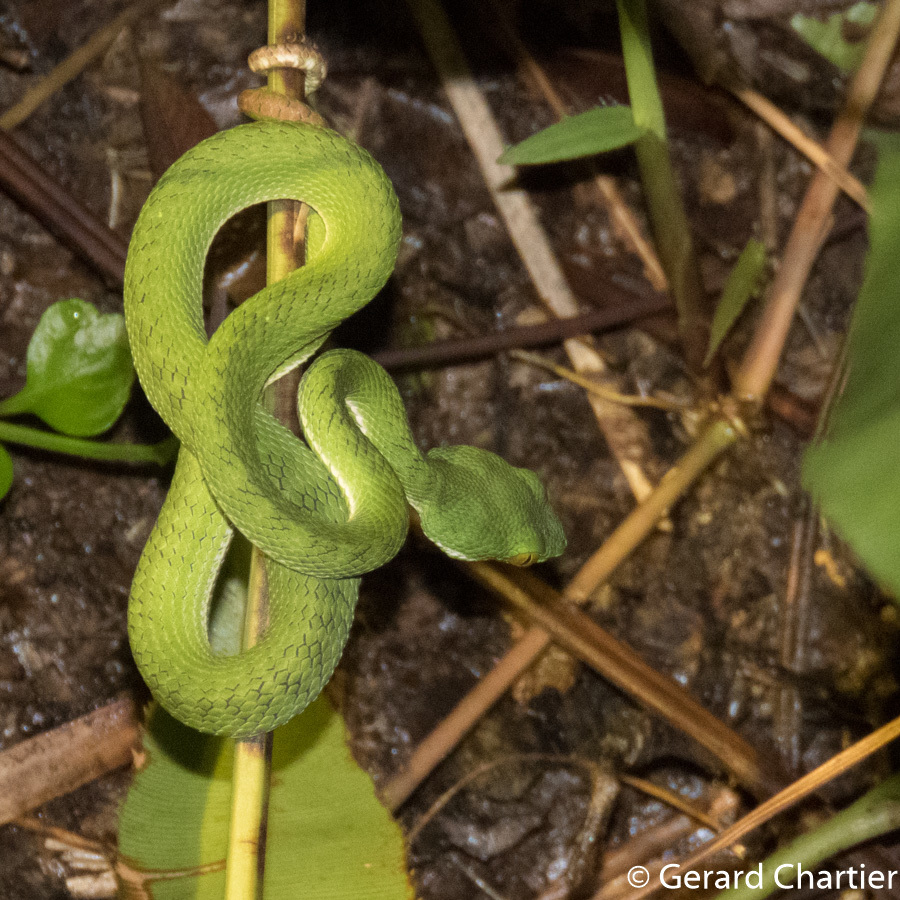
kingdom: Animalia
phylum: Chordata
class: Squamata
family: Viperidae
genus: Trimeresurus
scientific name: Trimeresurus cardamomensis
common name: Cardamom mountains green pitviper
